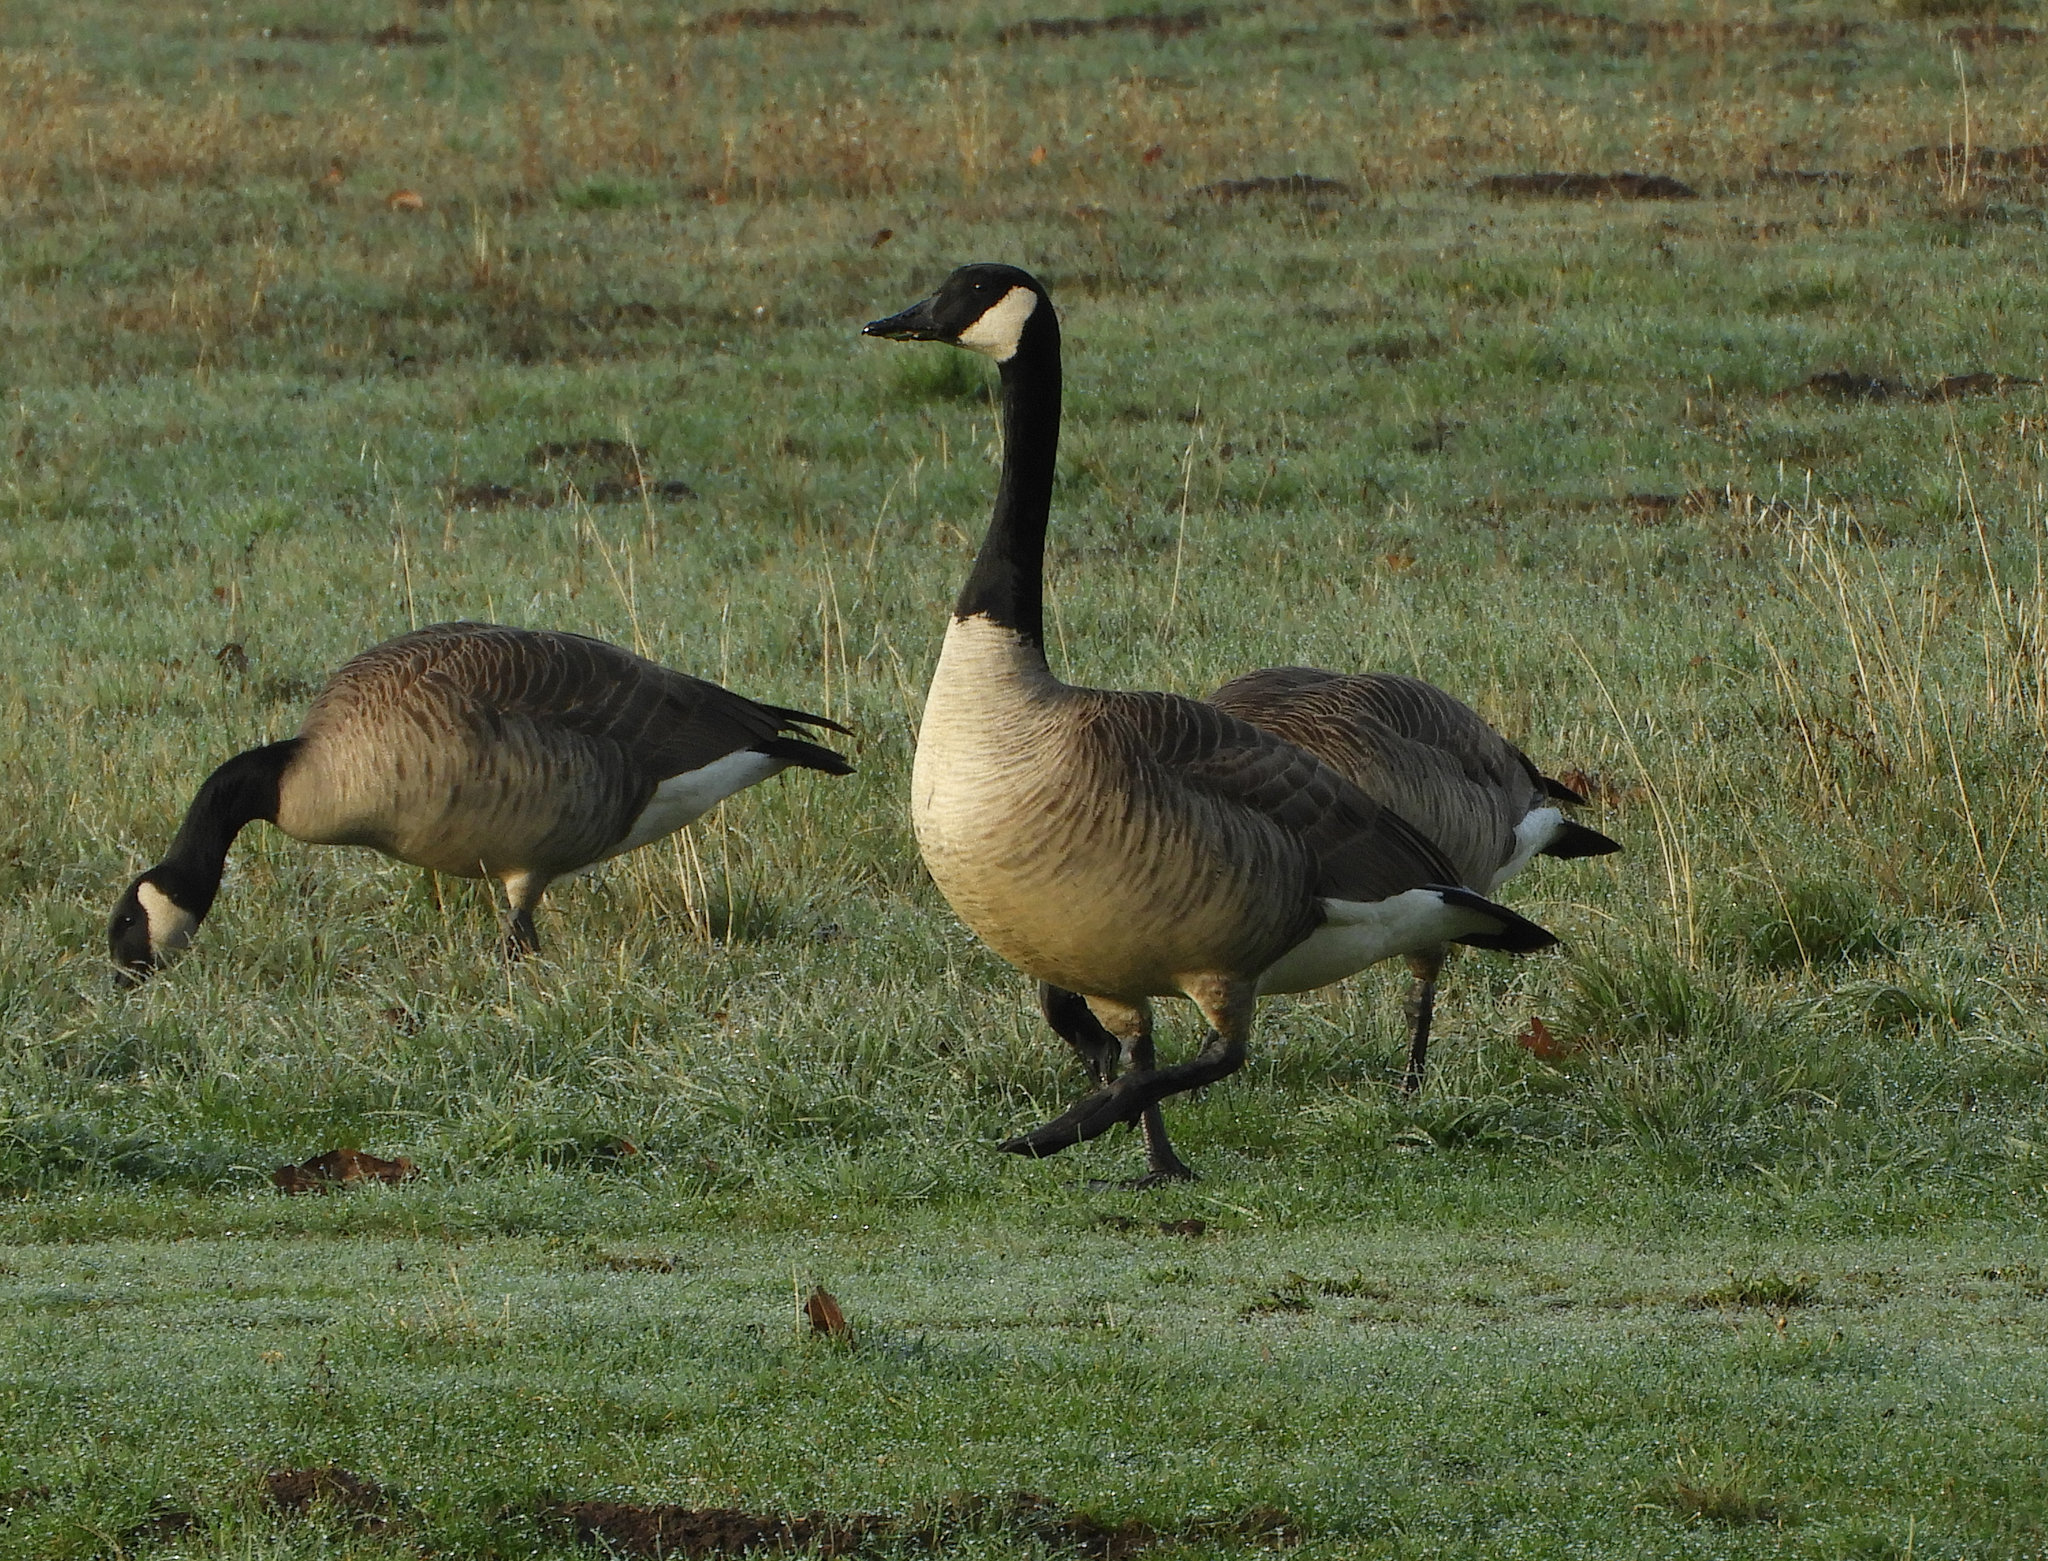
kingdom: Animalia
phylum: Chordata
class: Aves
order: Anseriformes
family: Anatidae
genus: Branta
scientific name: Branta canadensis
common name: Canada goose
